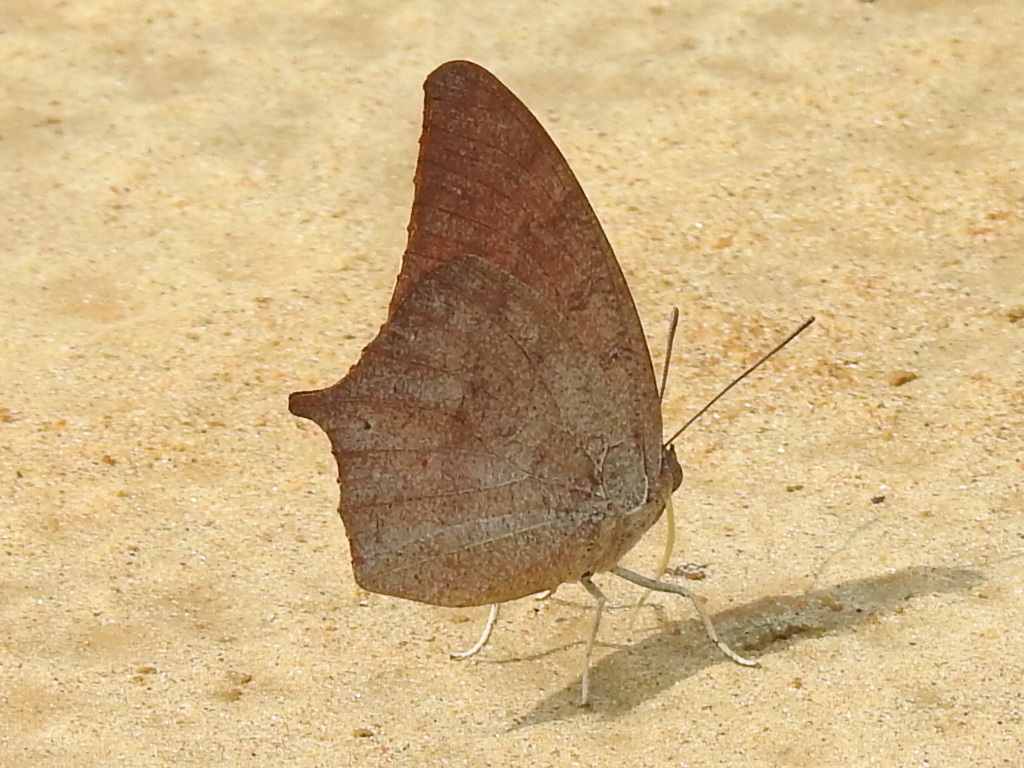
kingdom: Animalia
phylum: Arthropoda
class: Insecta
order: Lepidoptera
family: Nymphalidae
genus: Anaea
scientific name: Anaea andria
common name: Goatweed leafwing
